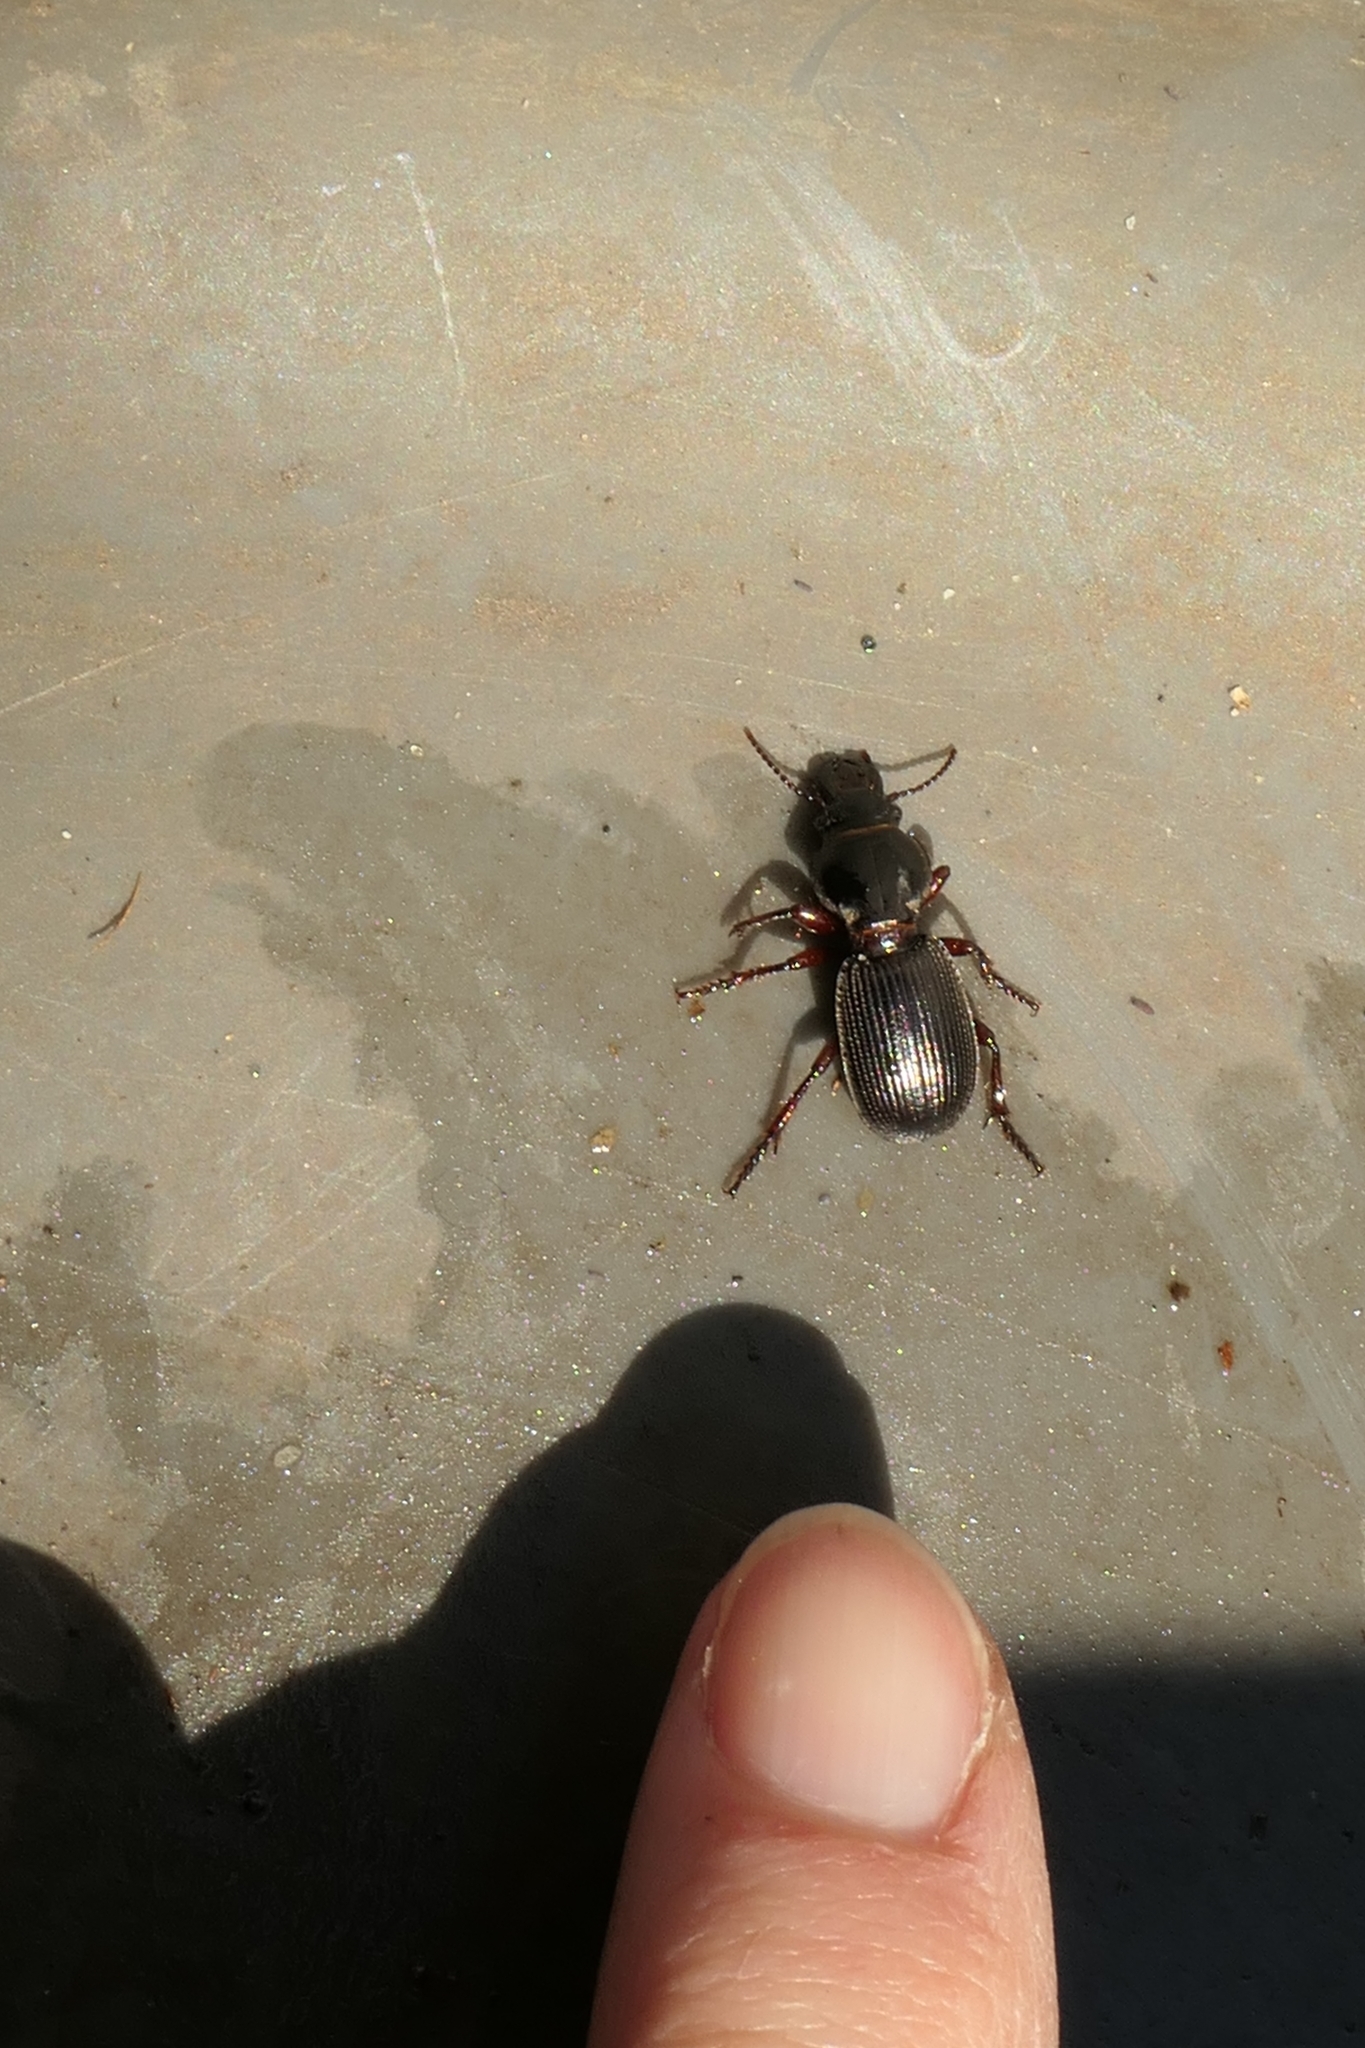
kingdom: Animalia
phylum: Arthropoda
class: Insecta
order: Coleoptera
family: Carabidae
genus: Mecodema
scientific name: Mecodema moniliferum
